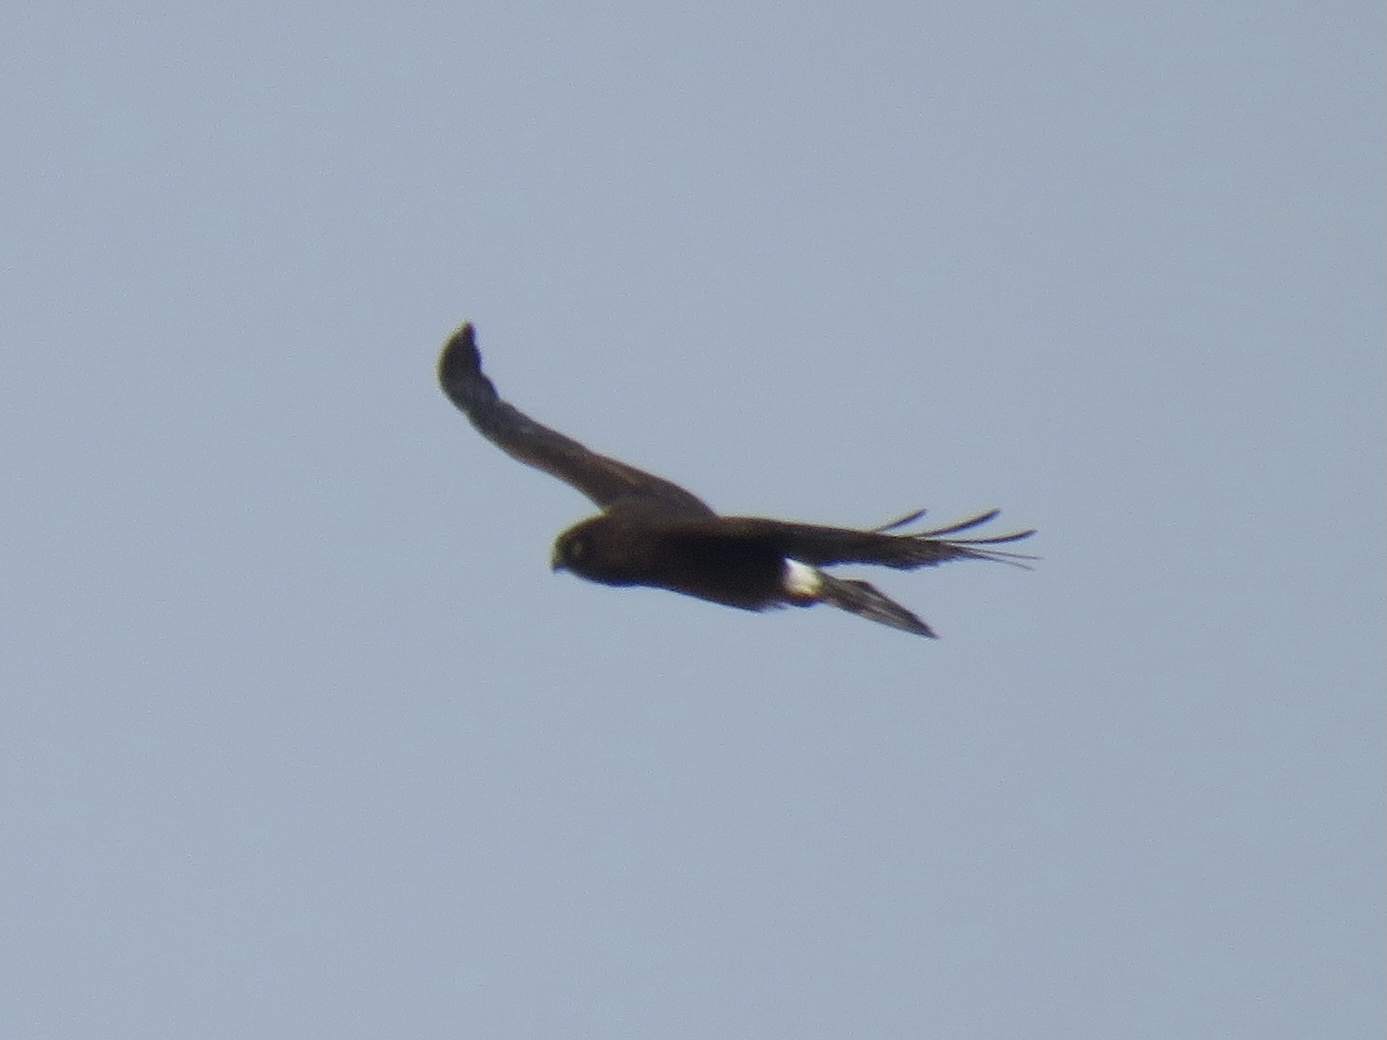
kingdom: Animalia
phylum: Chordata
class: Aves
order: Accipitriformes
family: Accipitridae
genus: Circus
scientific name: Circus cyaneus
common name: Hen harrier
